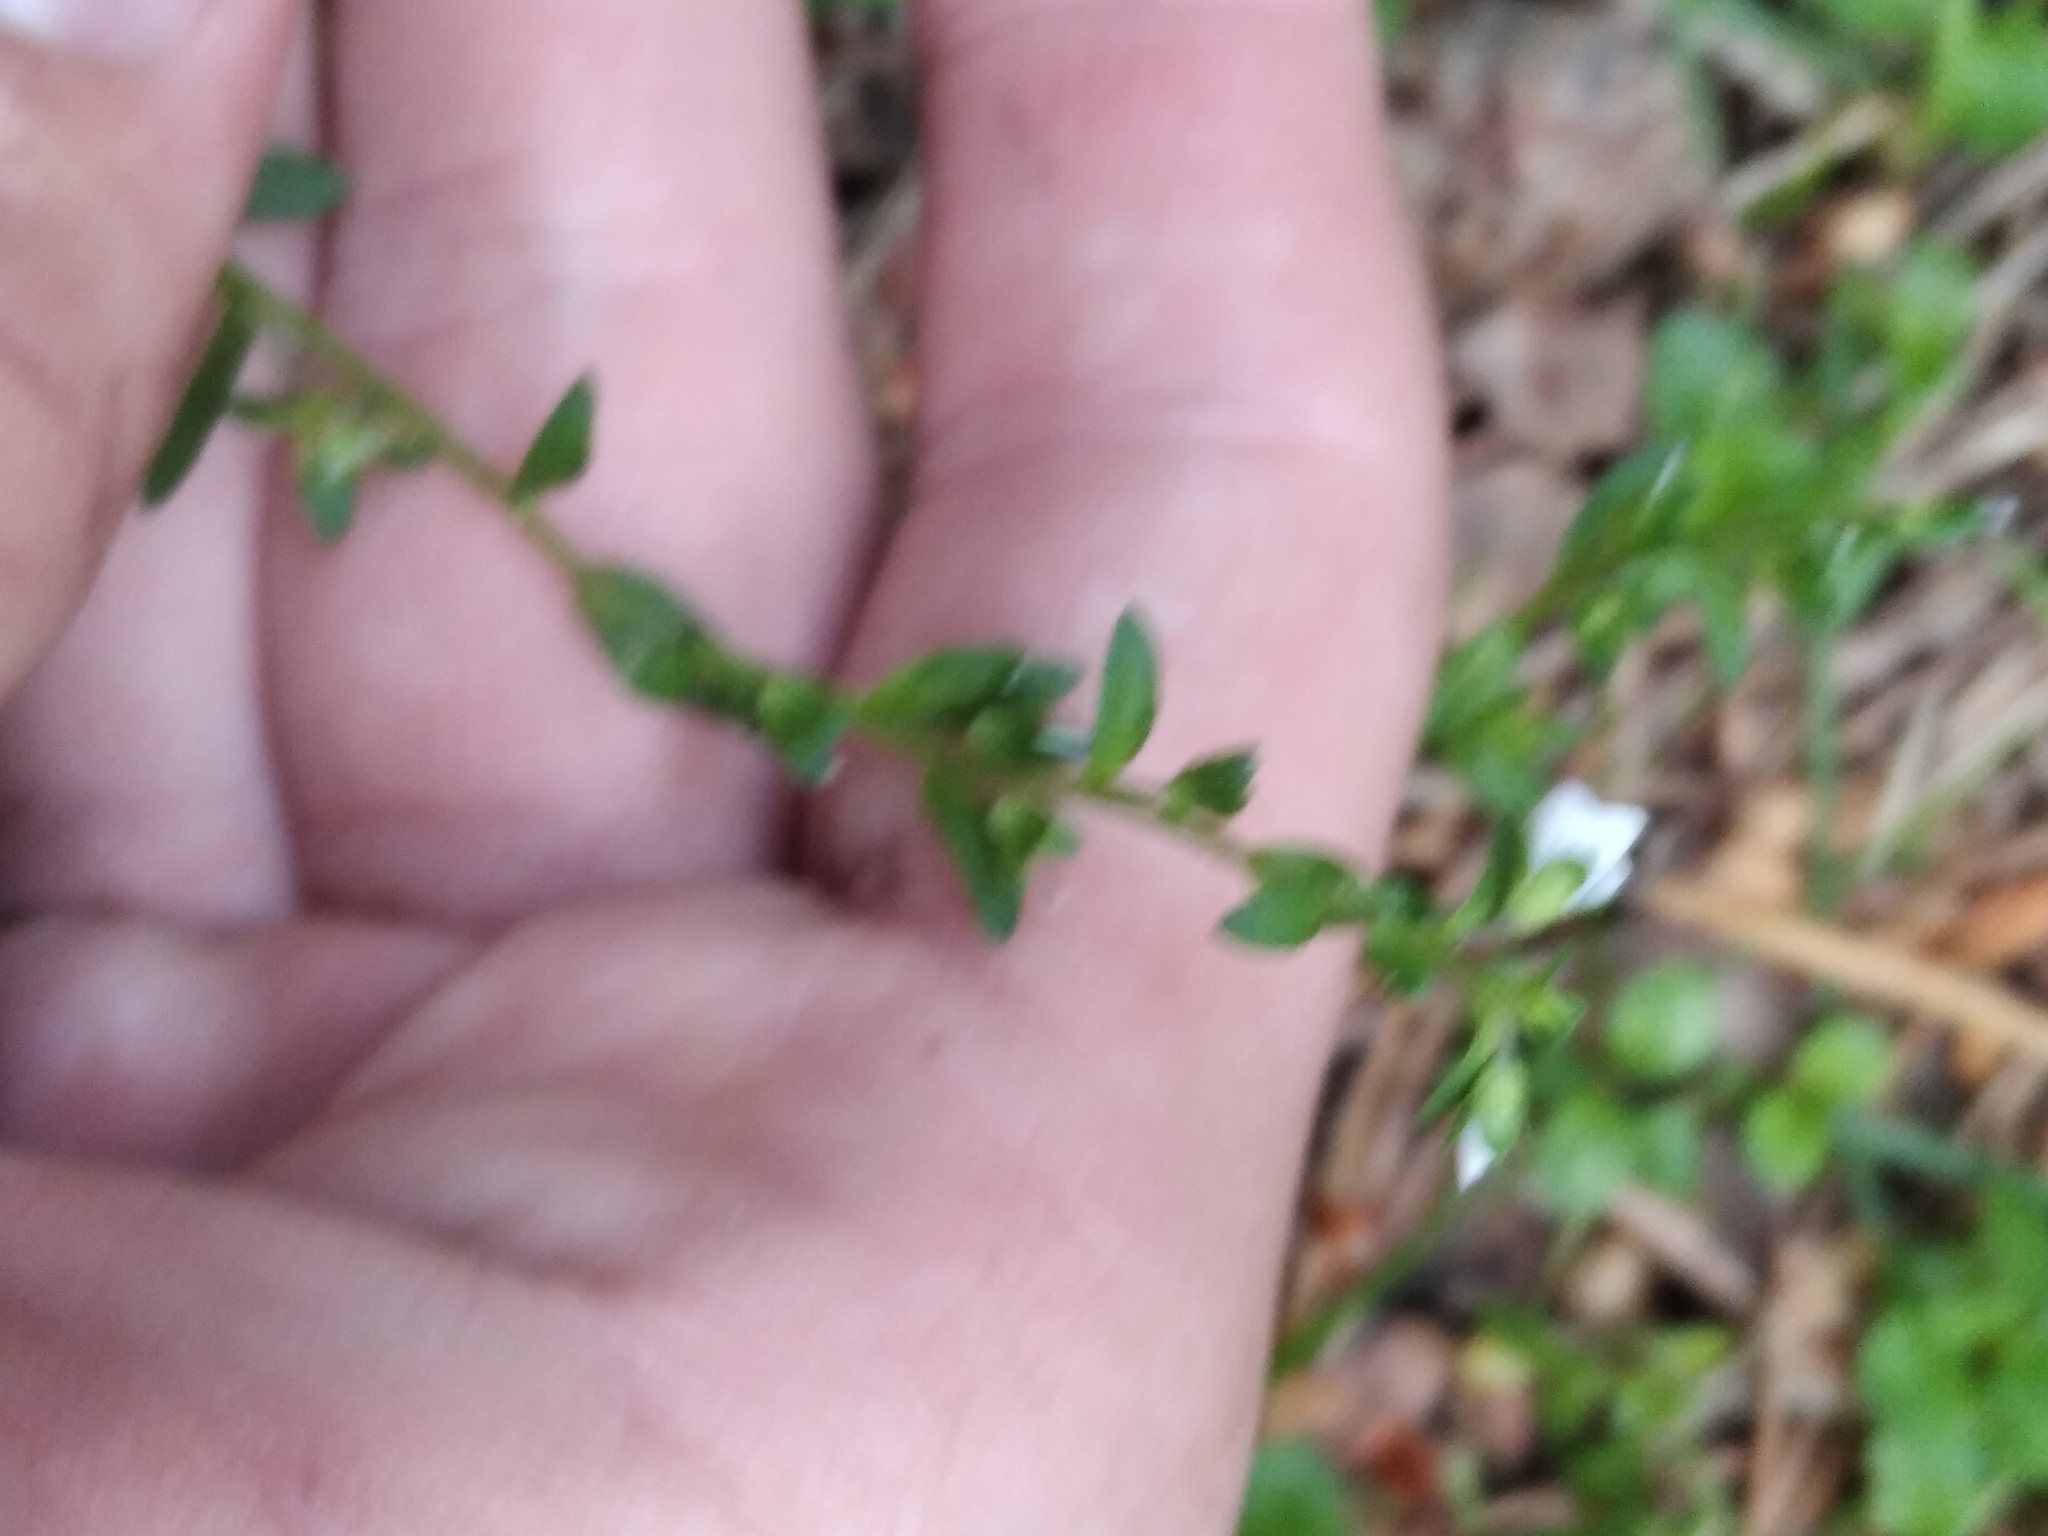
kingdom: Plantae
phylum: Tracheophyta
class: Magnoliopsida
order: Lamiales
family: Plantaginaceae
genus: Veronica
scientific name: Veronica serpyllifolia
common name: Thyme-leaved speedwell
